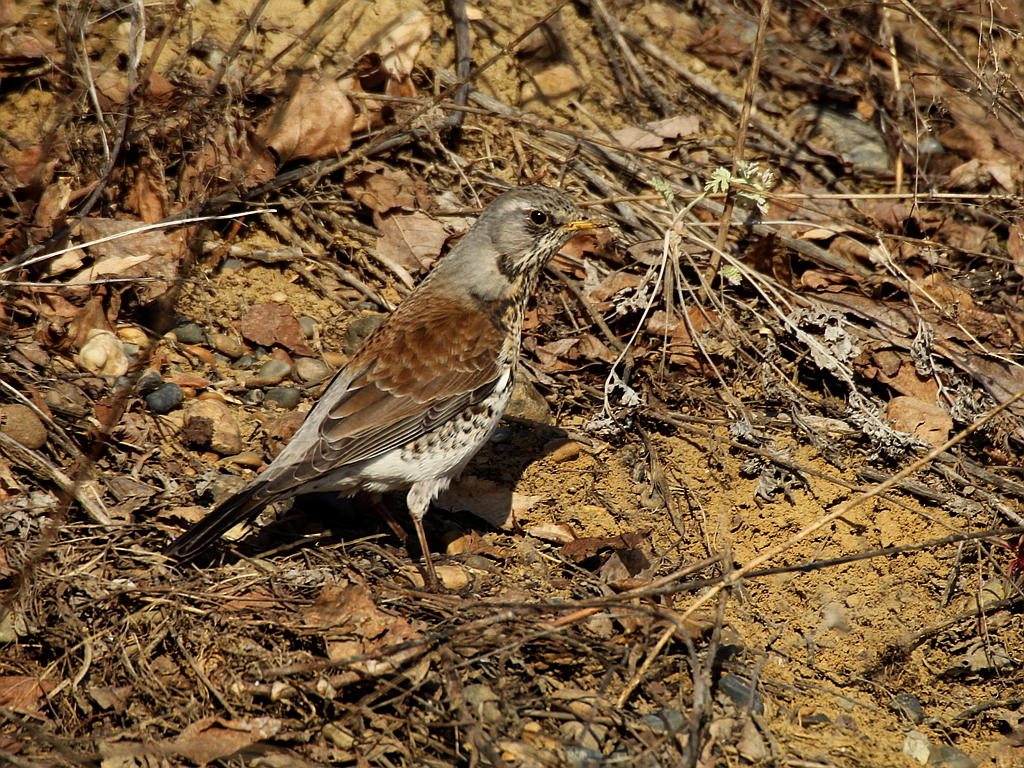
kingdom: Animalia
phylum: Chordata
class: Aves
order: Passeriformes
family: Turdidae
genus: Turdus
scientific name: Turdus pilaris
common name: Fieldfare
